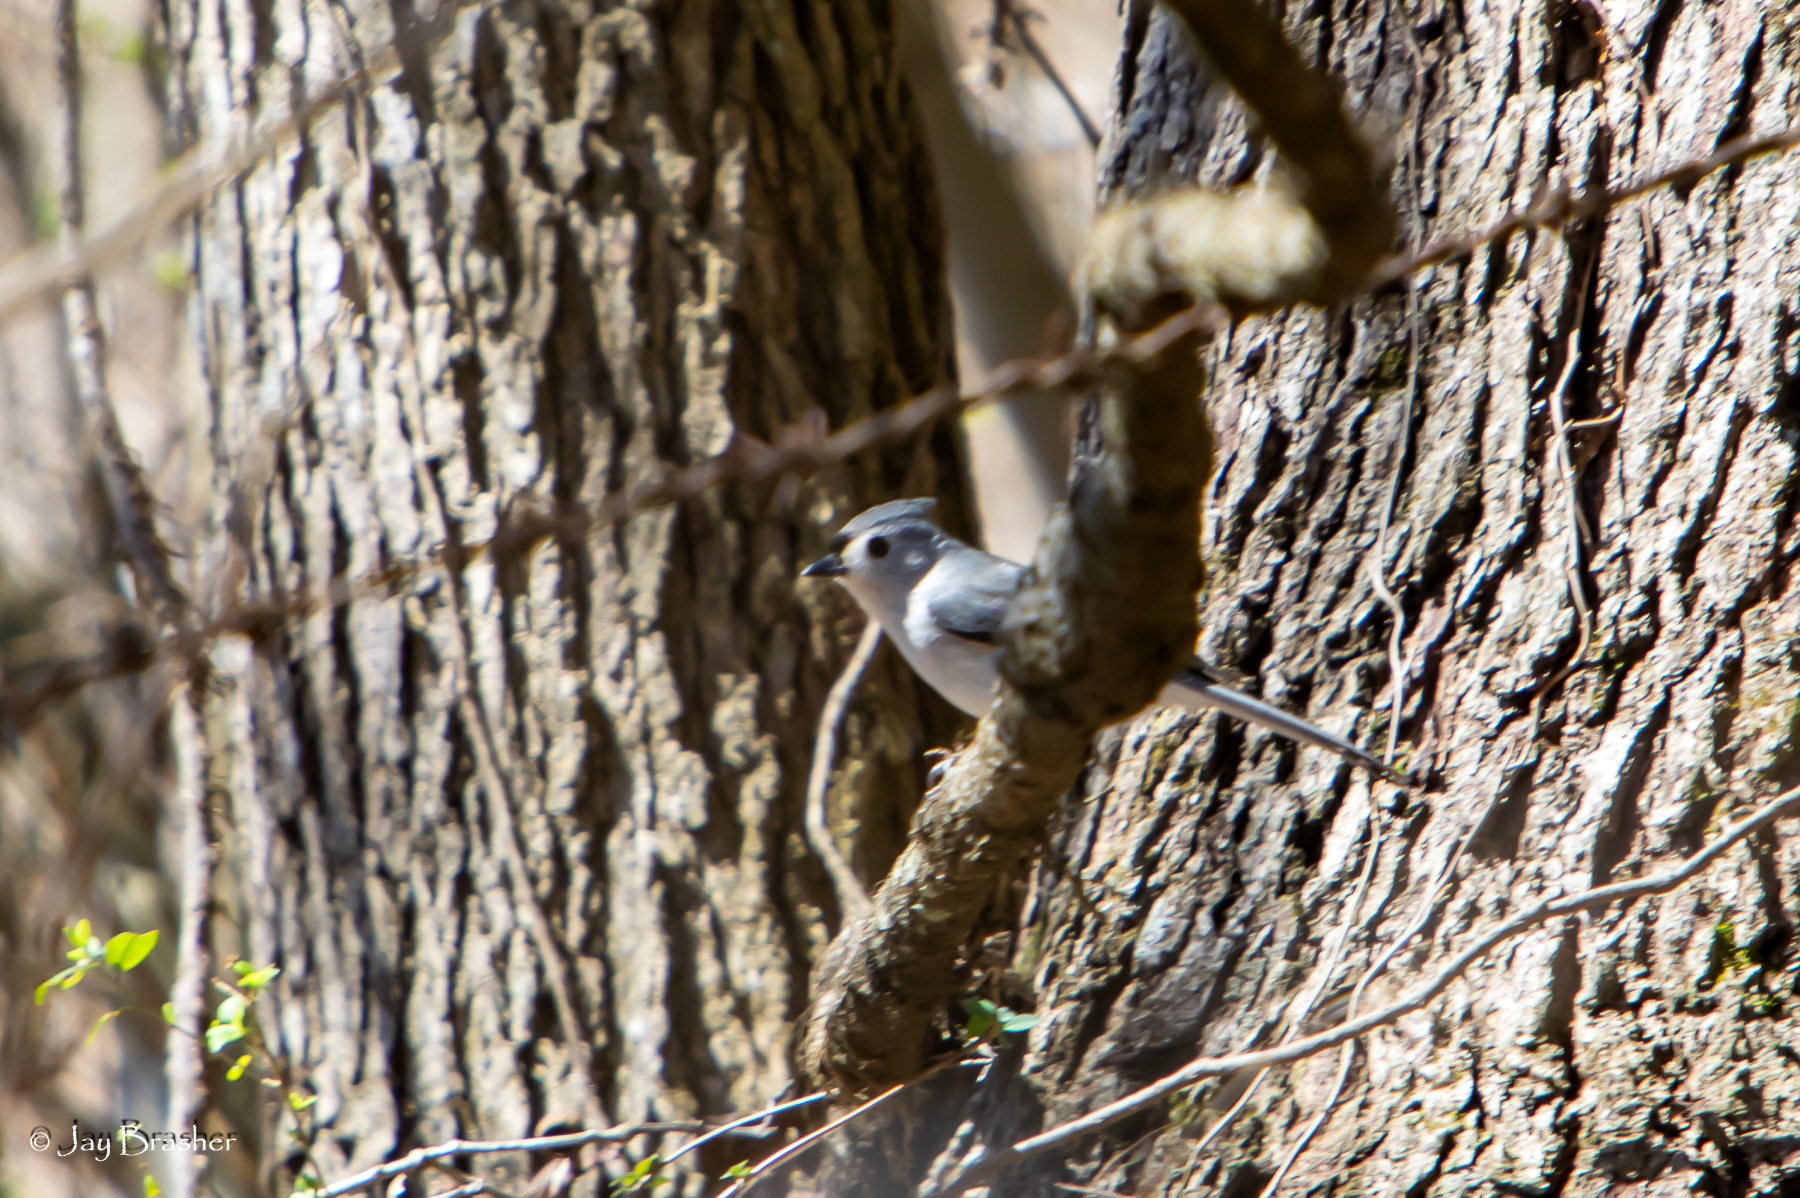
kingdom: Animalia
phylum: Chordata
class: Aves
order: Passeriformes
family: Paridae
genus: Baeolophus
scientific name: Baeolophus bicolor
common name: Tufted titmouse
